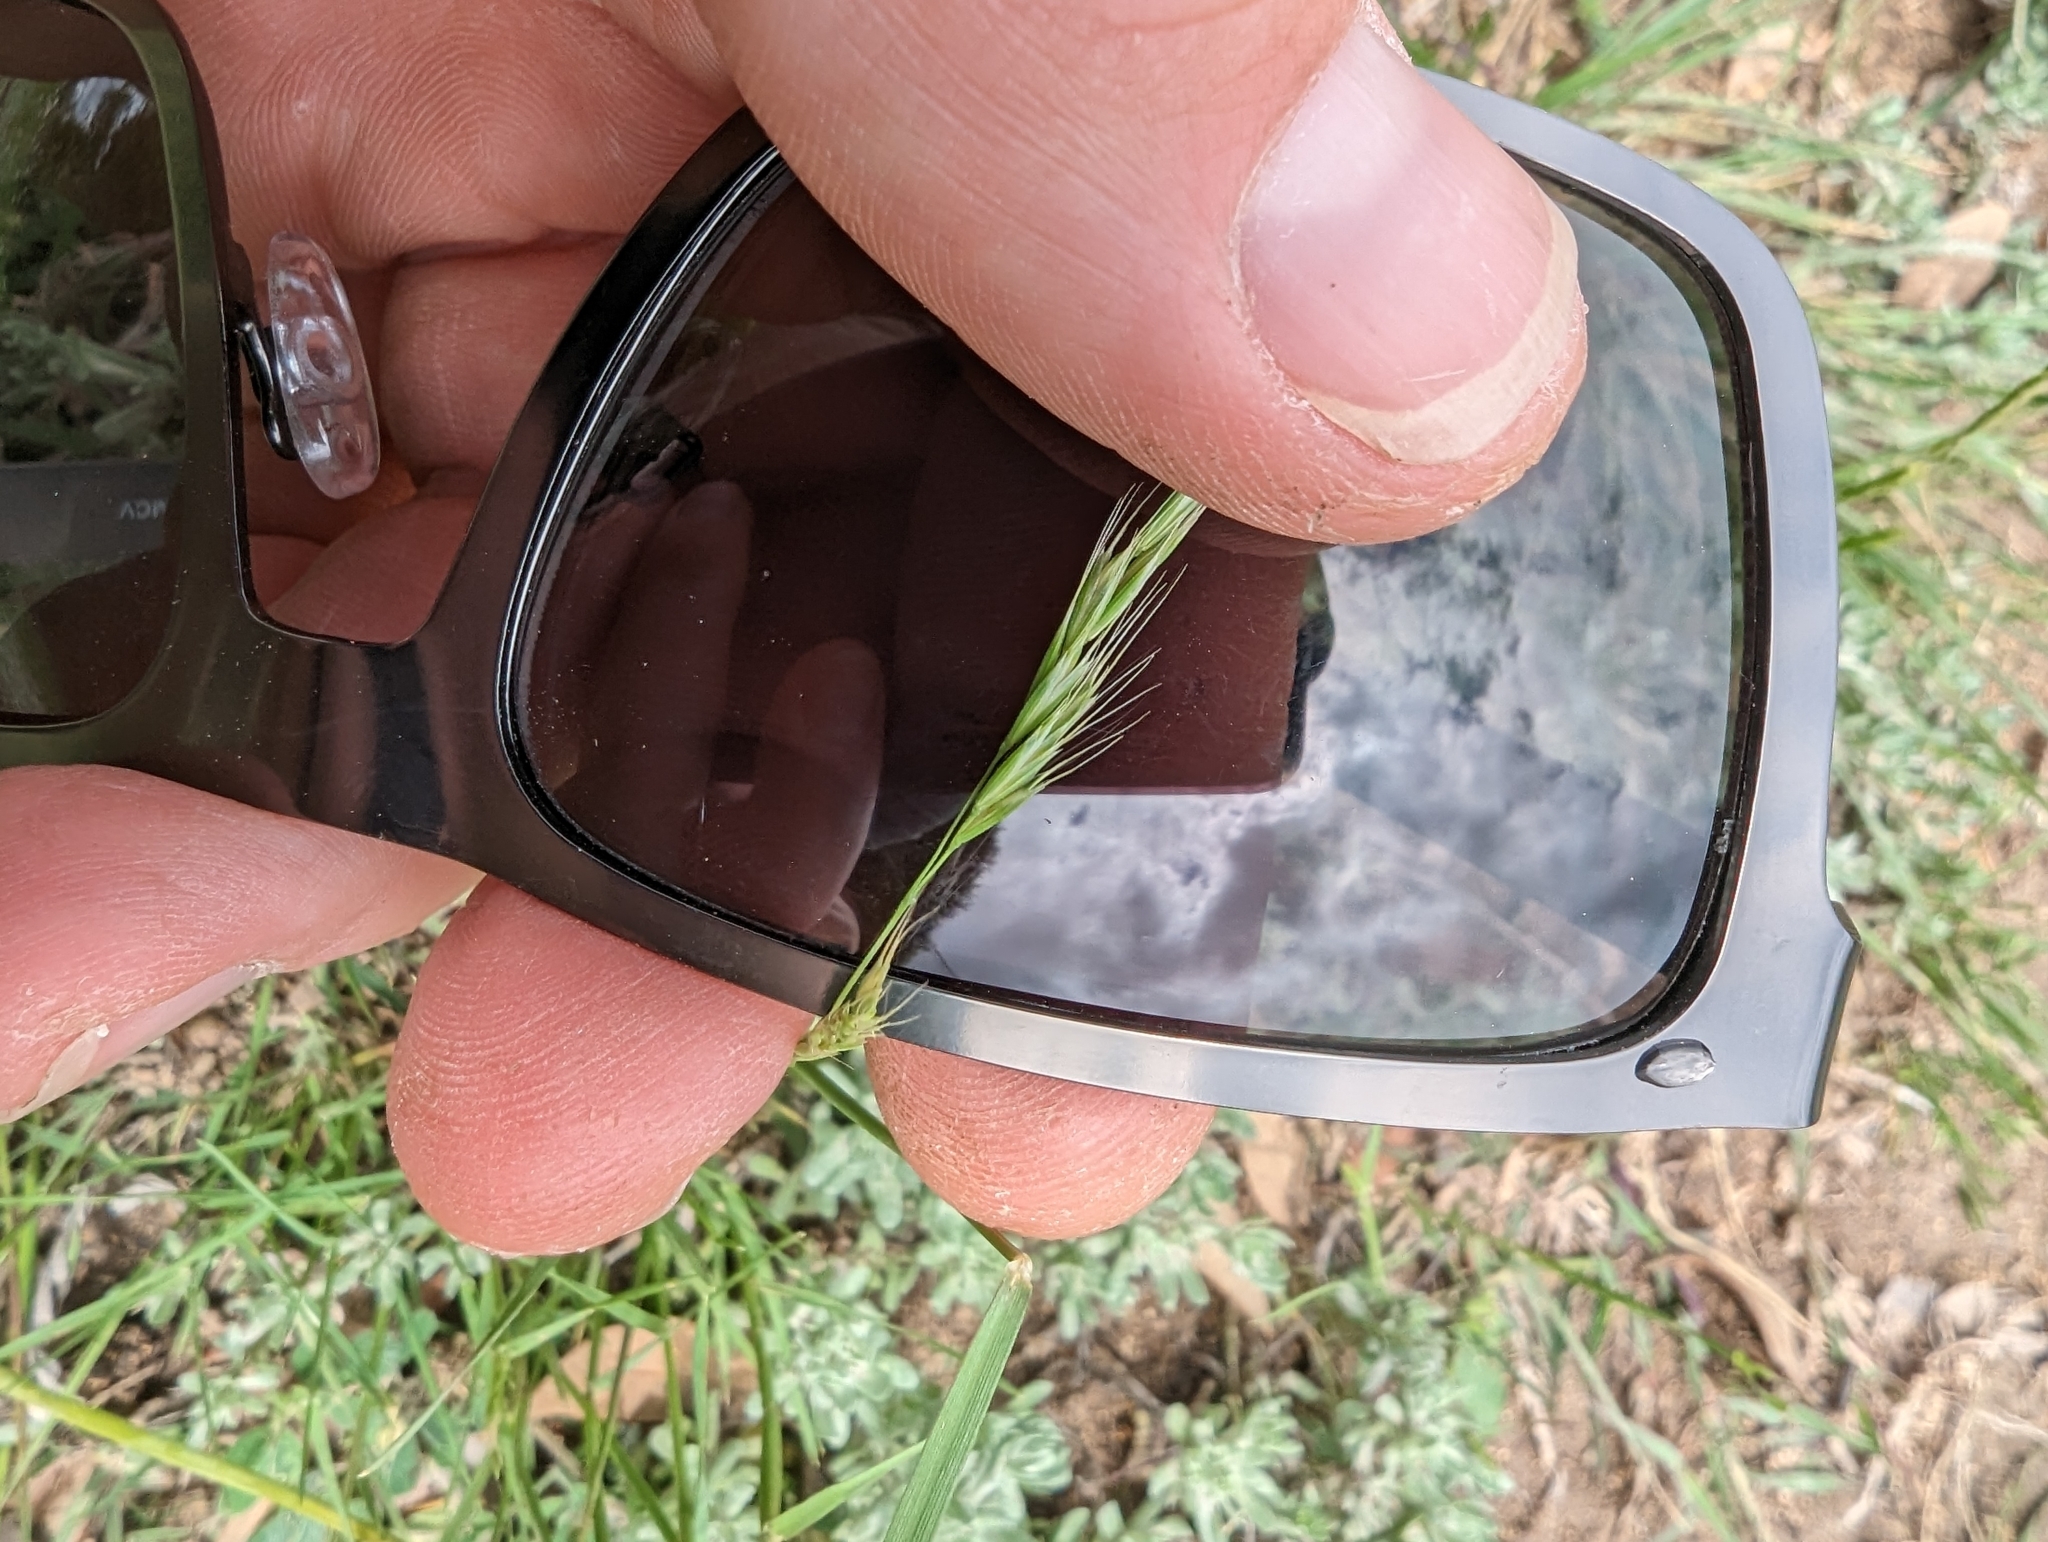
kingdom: Plantae
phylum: Tracheophyta
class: Liliopsida
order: Poales
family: Poaceae
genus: Trisetum
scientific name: Trisetum interruptum
